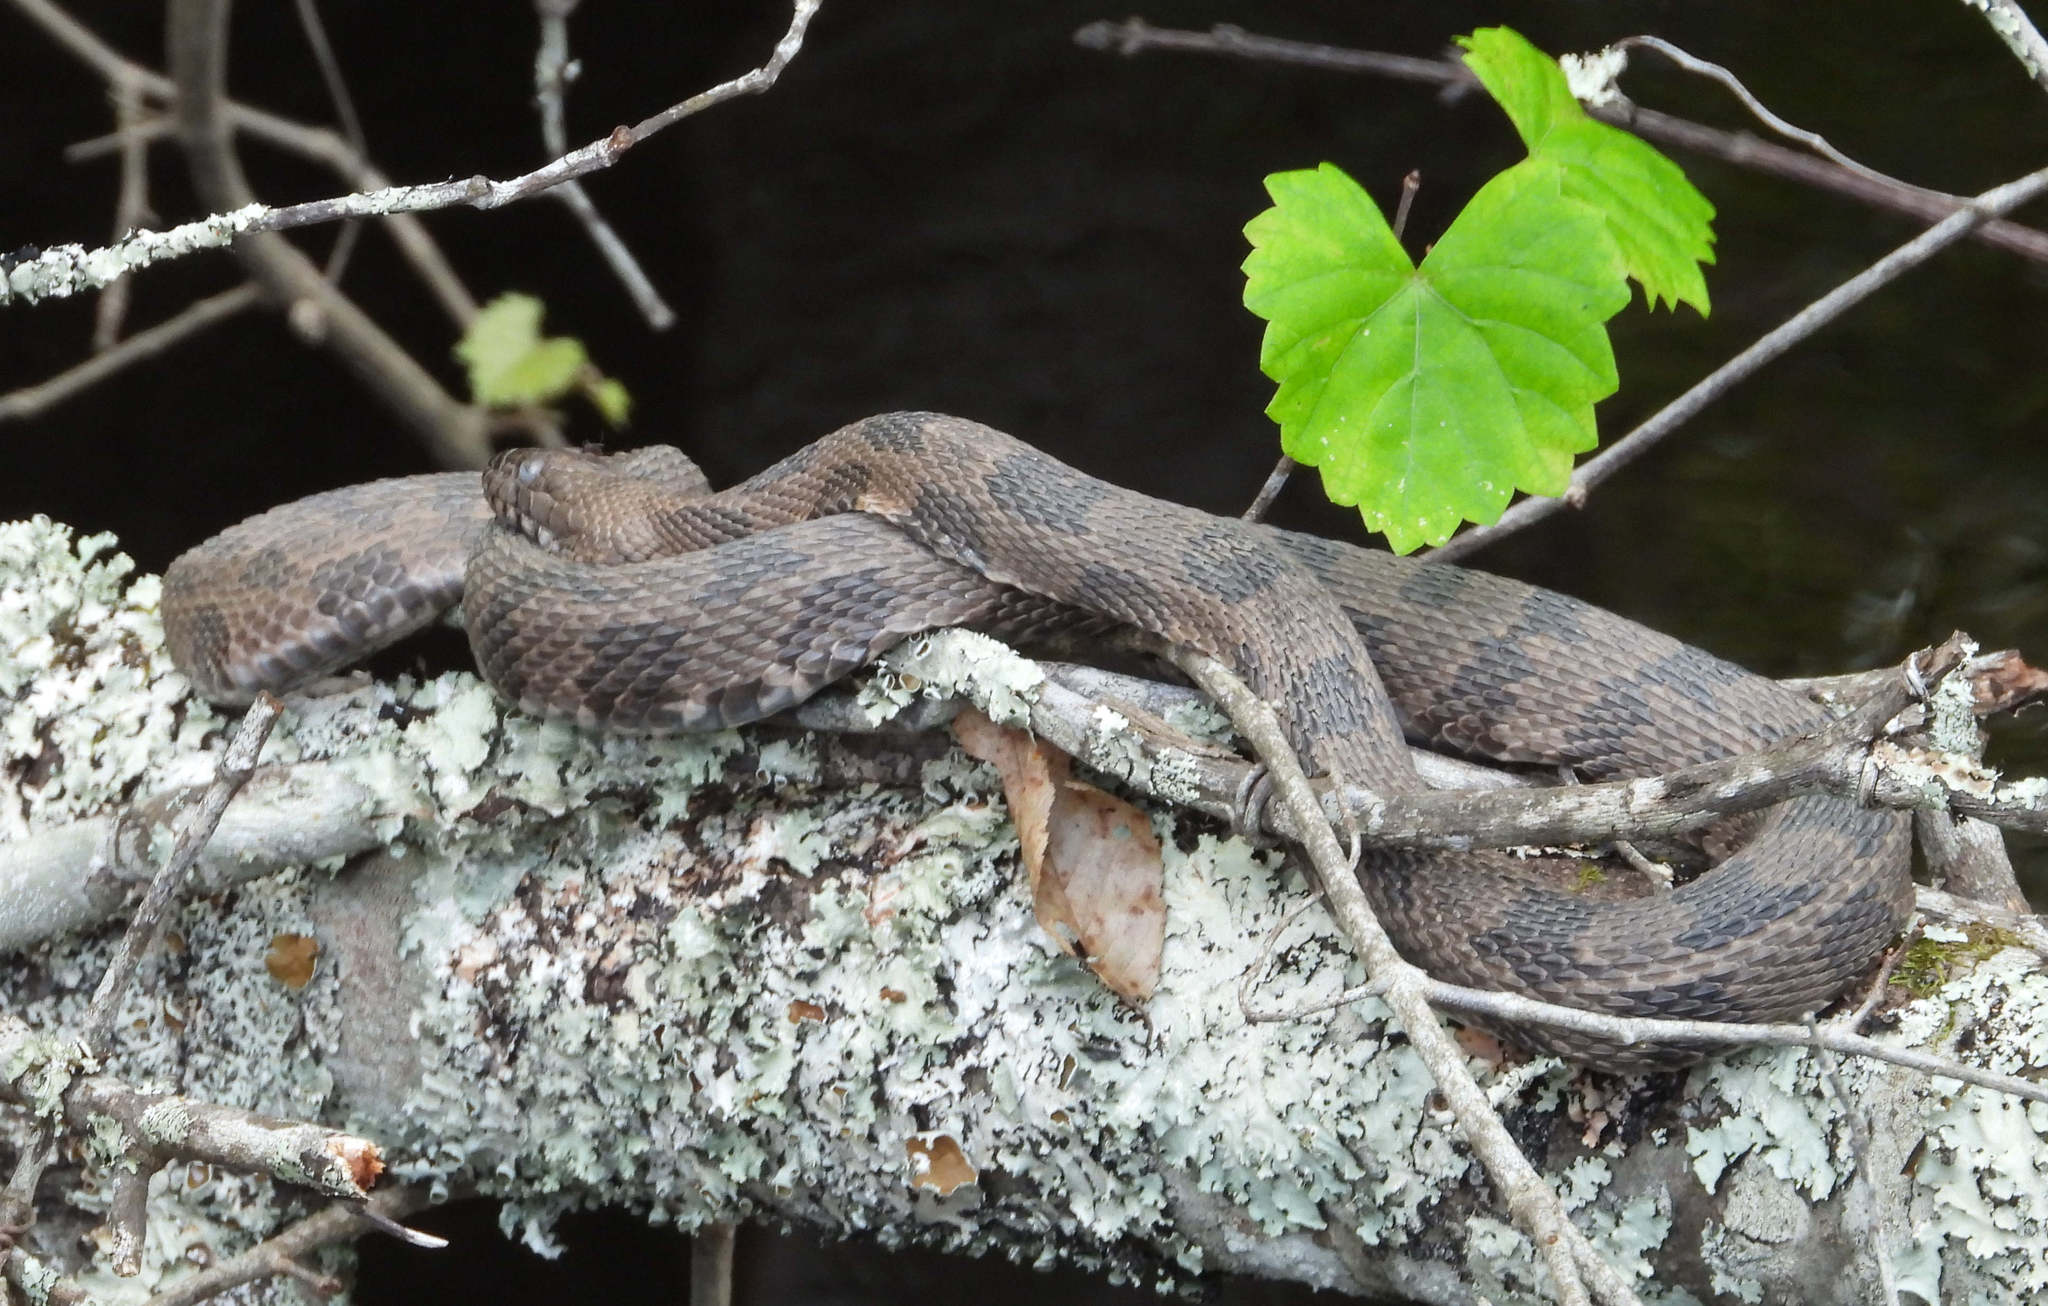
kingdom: Animalia
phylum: Chordata
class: Squamata
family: Colubridae
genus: Nerodia
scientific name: Nerodia taxispilota
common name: Brown water snake
